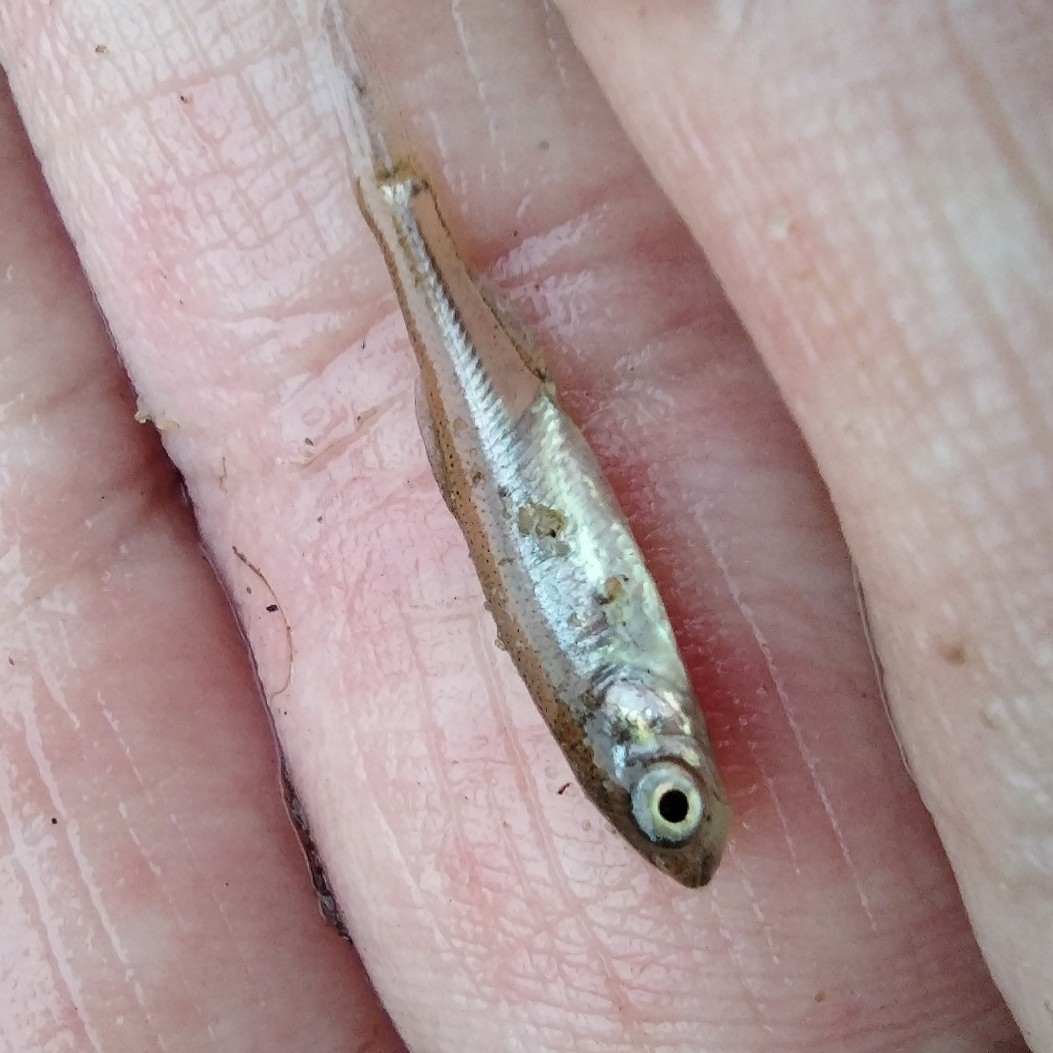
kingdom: Animalia
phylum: Chordata
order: Cypriniformes
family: Cyprinidae
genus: Leucaspius
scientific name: Leucaspius delineatus
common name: Sunbleak
